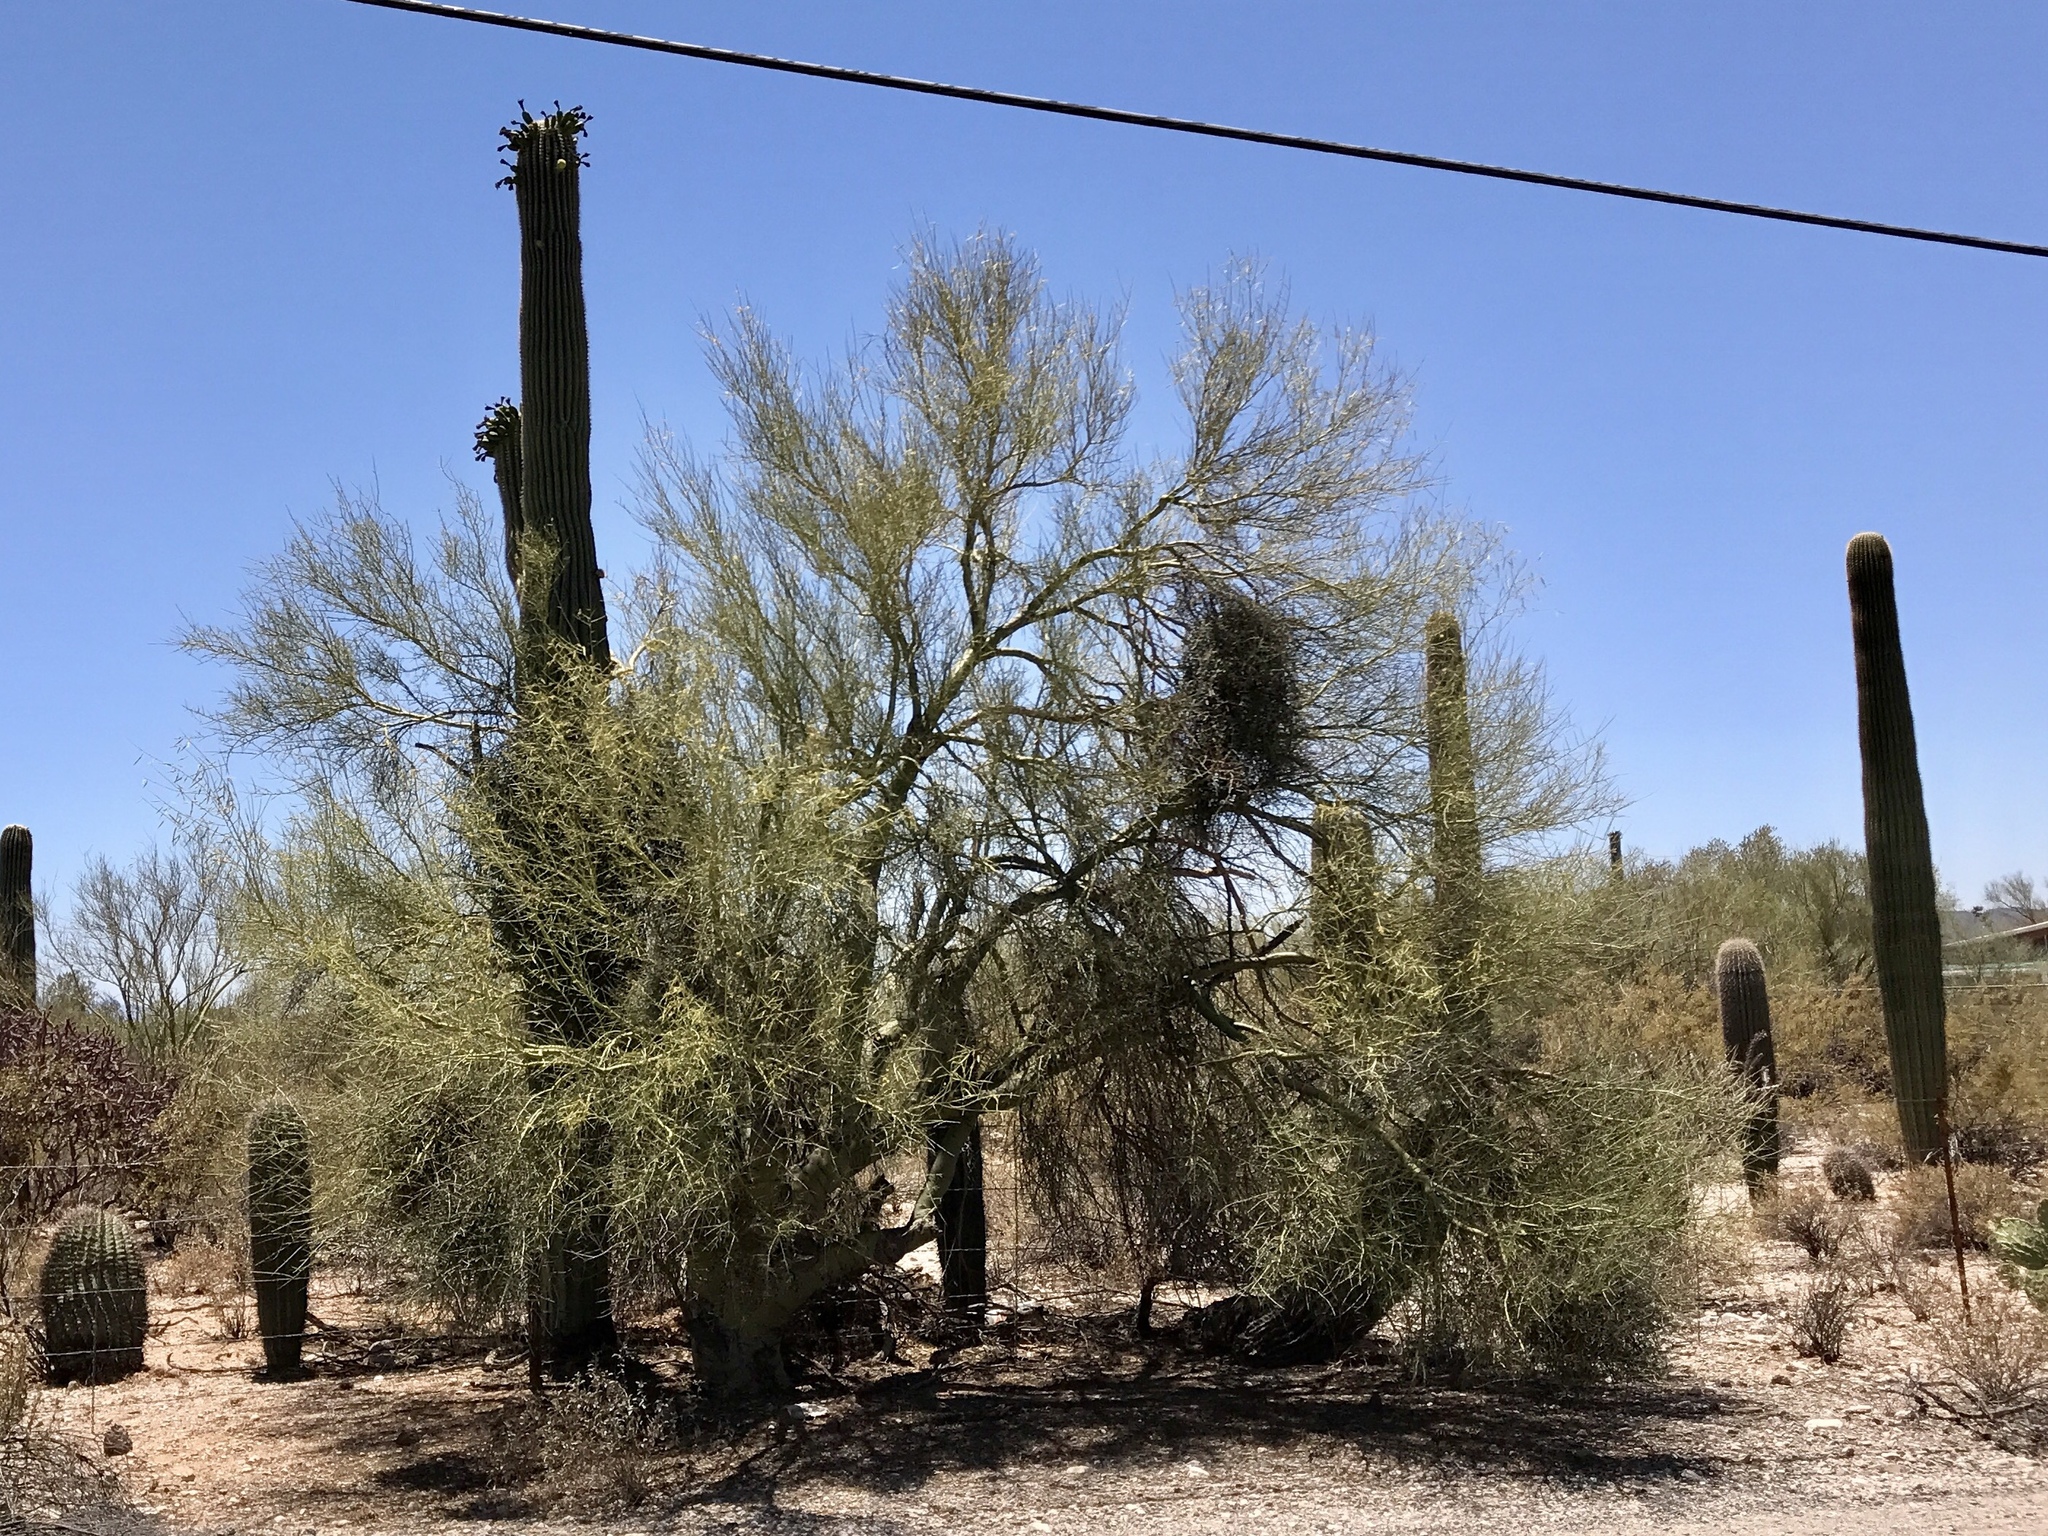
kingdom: Plantae
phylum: Tracheophyta
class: Magnoliopsida
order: Fabales
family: Fabaceae
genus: Parkinsonia
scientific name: Parkinsonia microphylla
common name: Yellow paloverde
